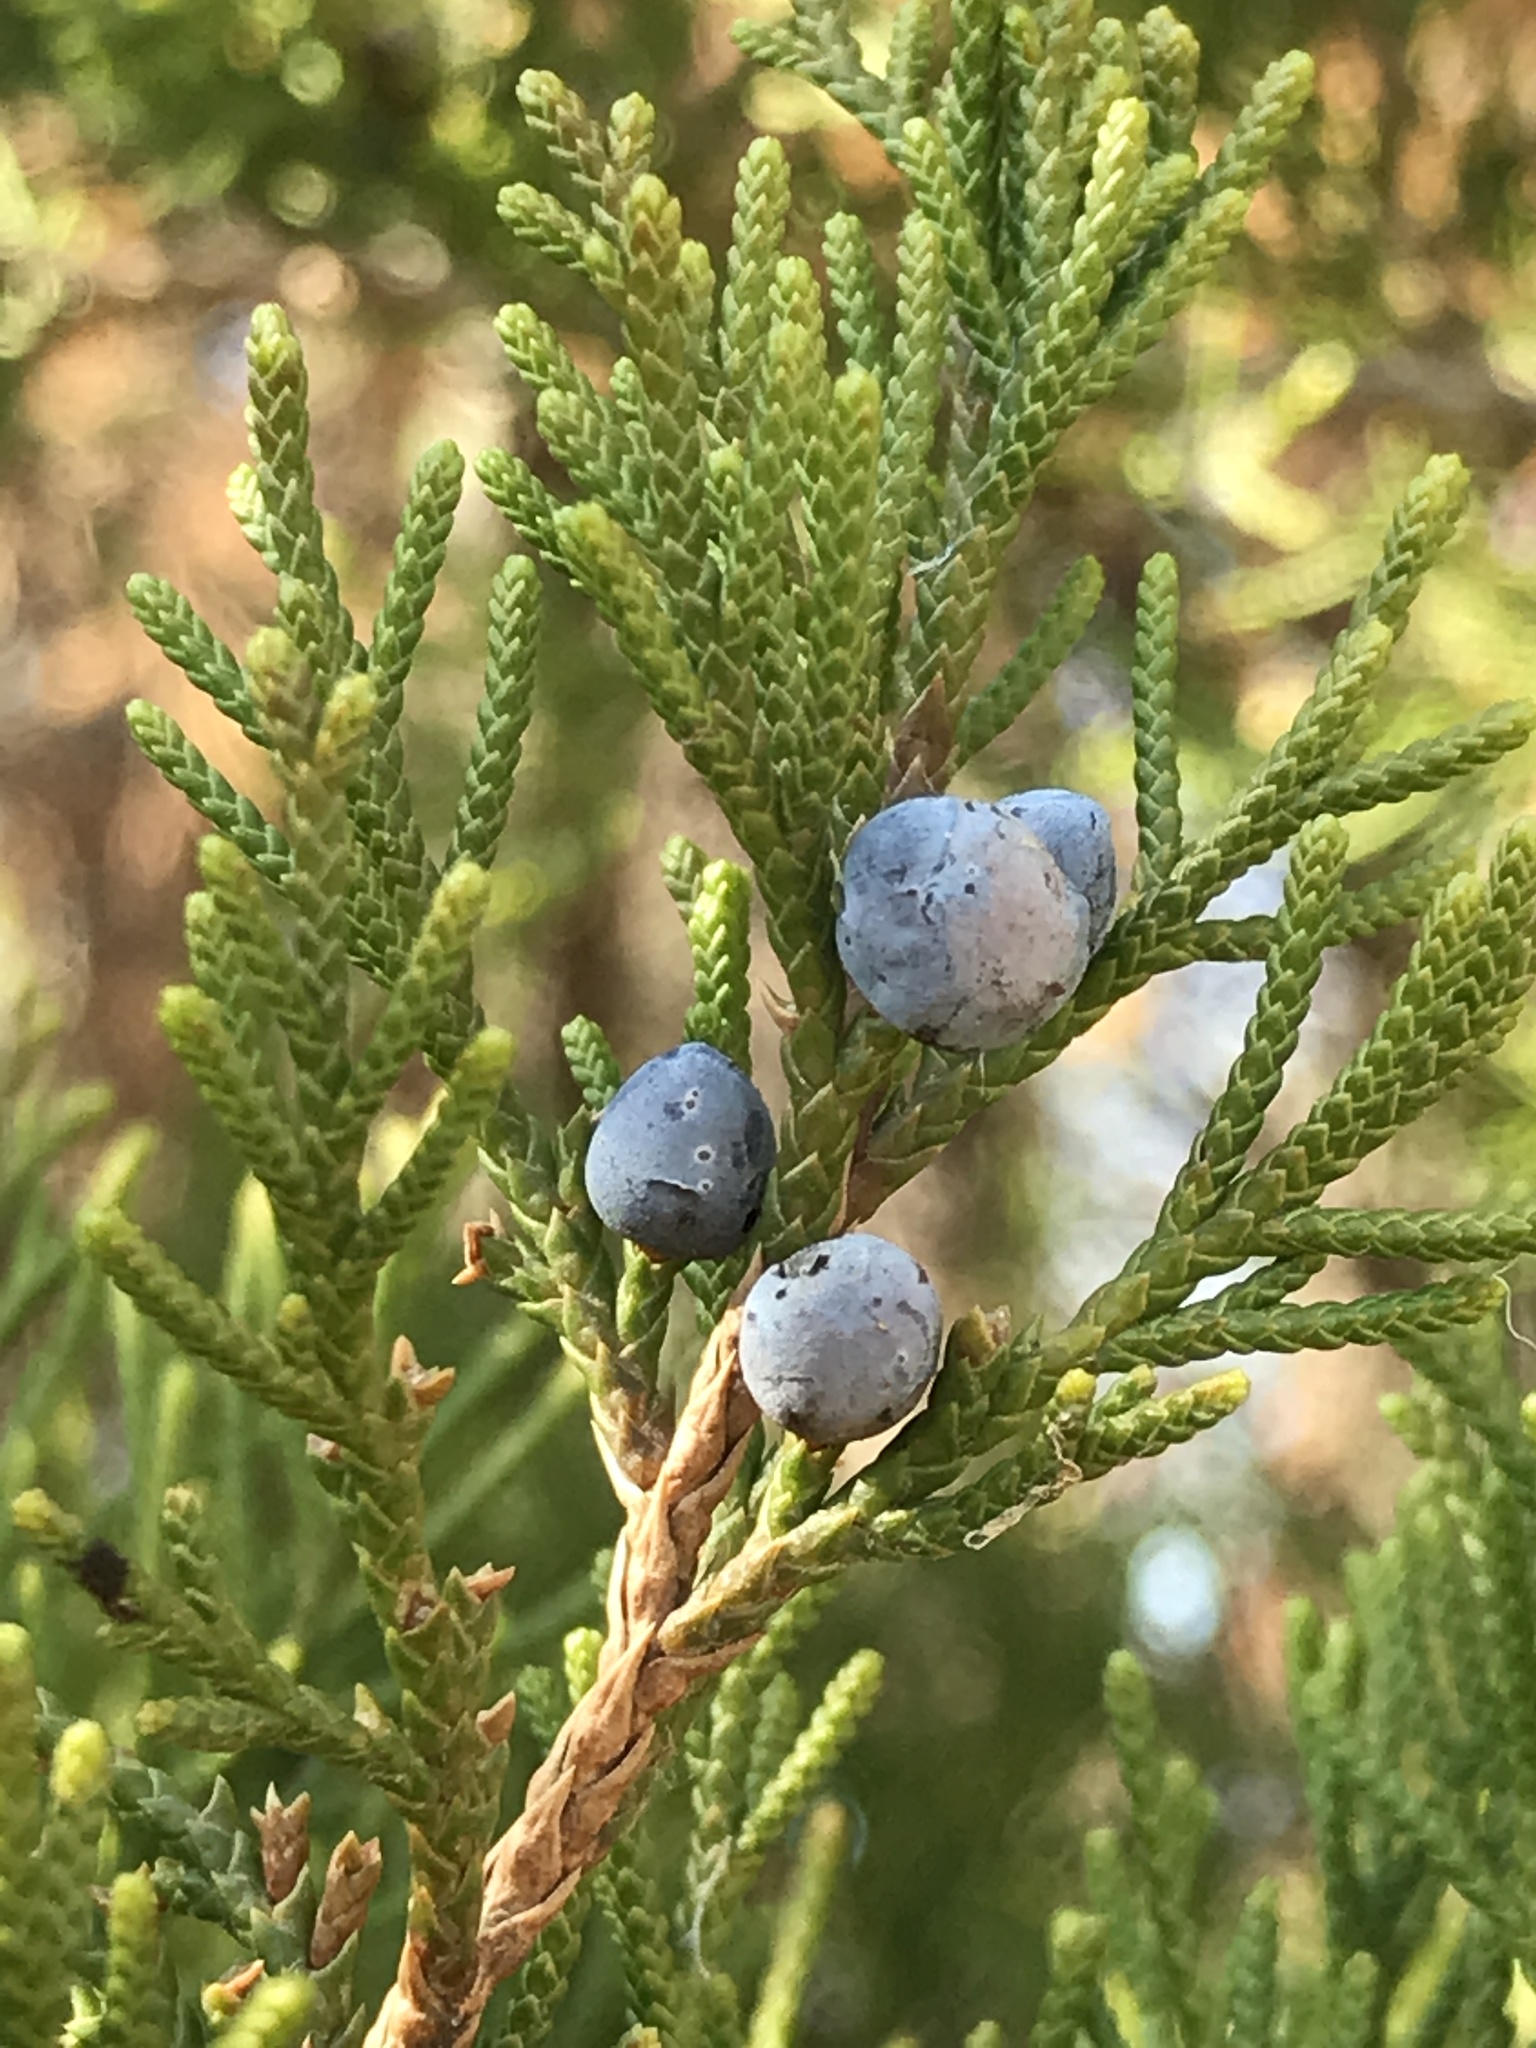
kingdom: Plantae
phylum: Tracheophyta
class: Pinopsida
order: Pinales
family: Cupressaceae
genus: Juniperus
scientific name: Juniperus virginiana
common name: Red juniper
